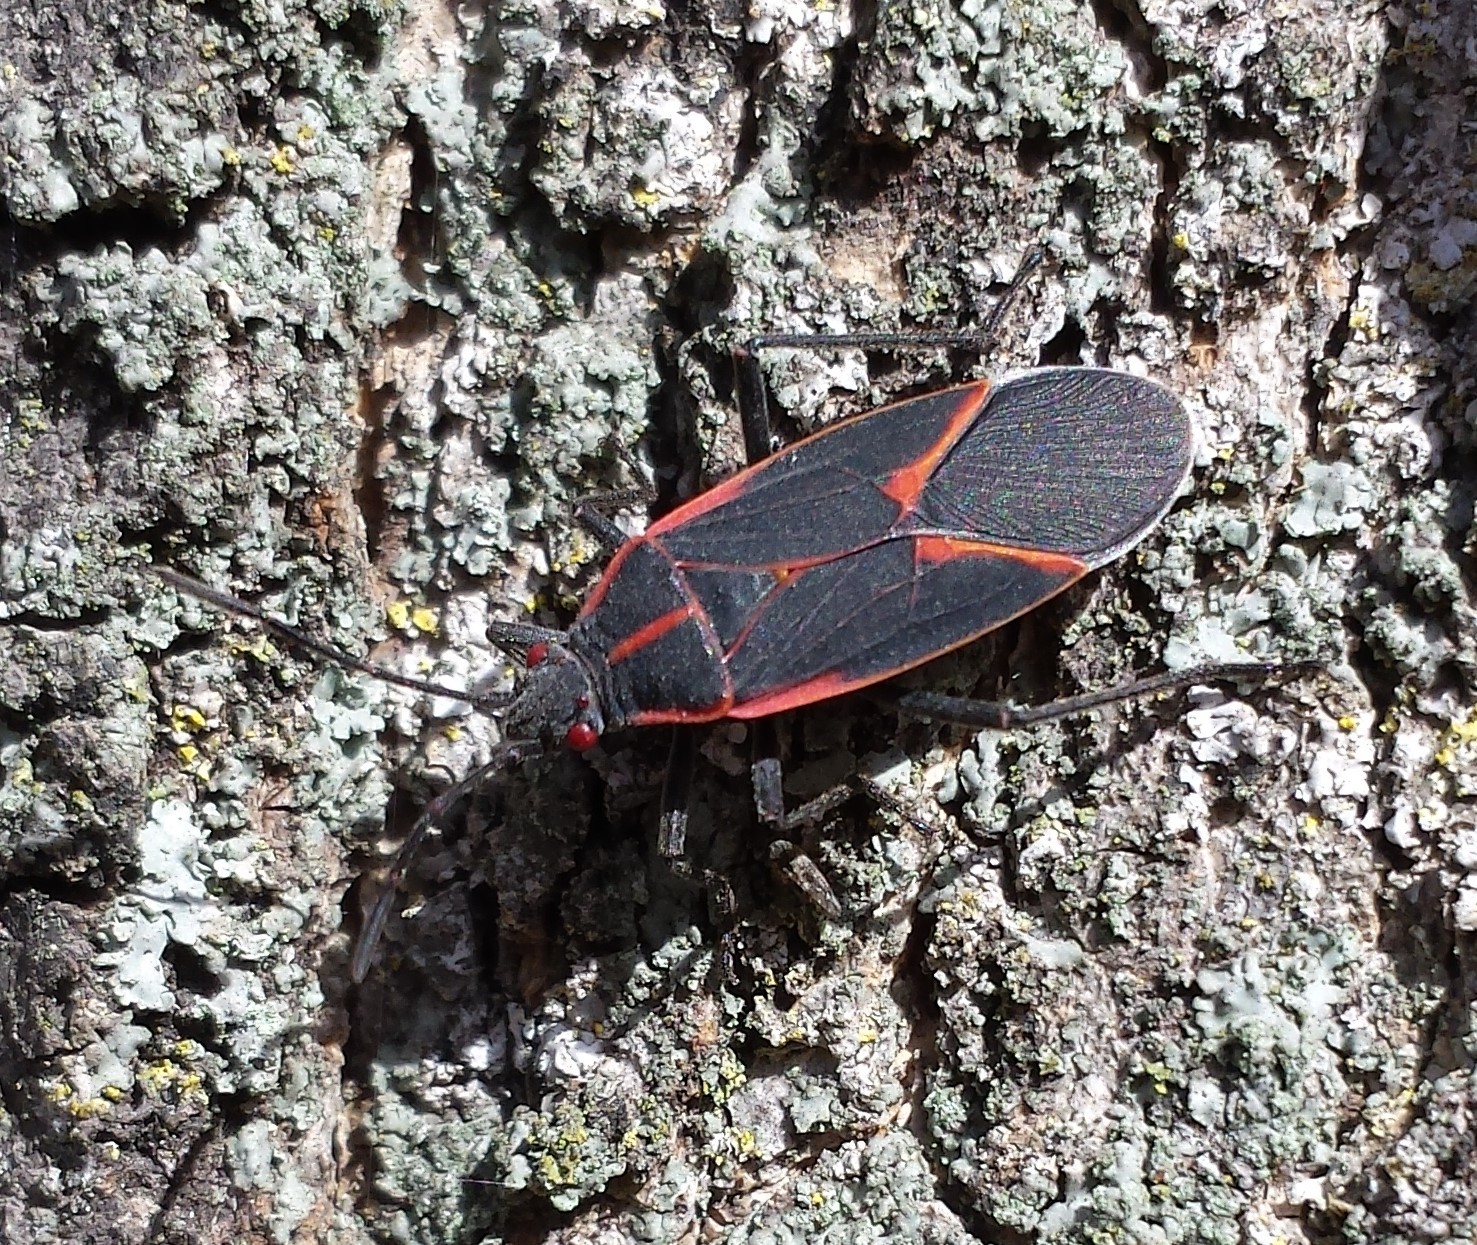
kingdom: Animalia
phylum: Arthropoda
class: Insecta
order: Hemiptera
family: Rhopalidae
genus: Boisea
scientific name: Boisea trivittata
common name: Boxelder bug
